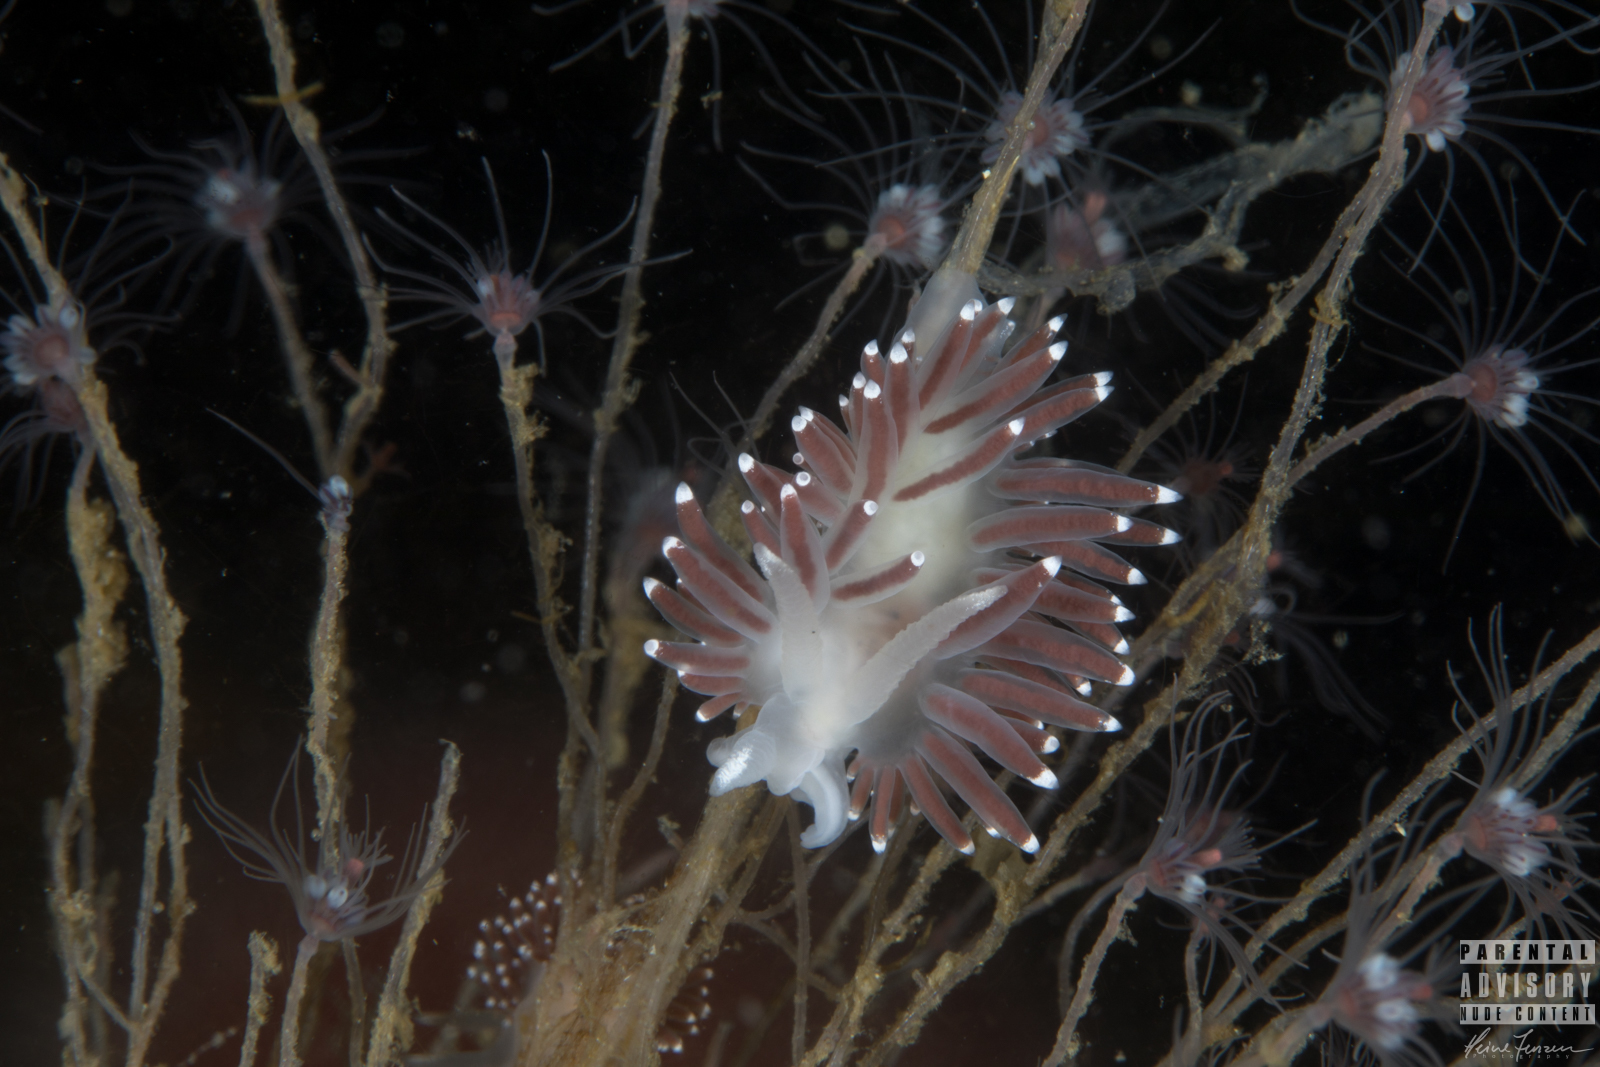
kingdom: Animalia
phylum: Mollusca
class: Gastropoda
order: Nudibranchia
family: Coryphellidae
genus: Coryphella
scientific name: Coryphella browni
